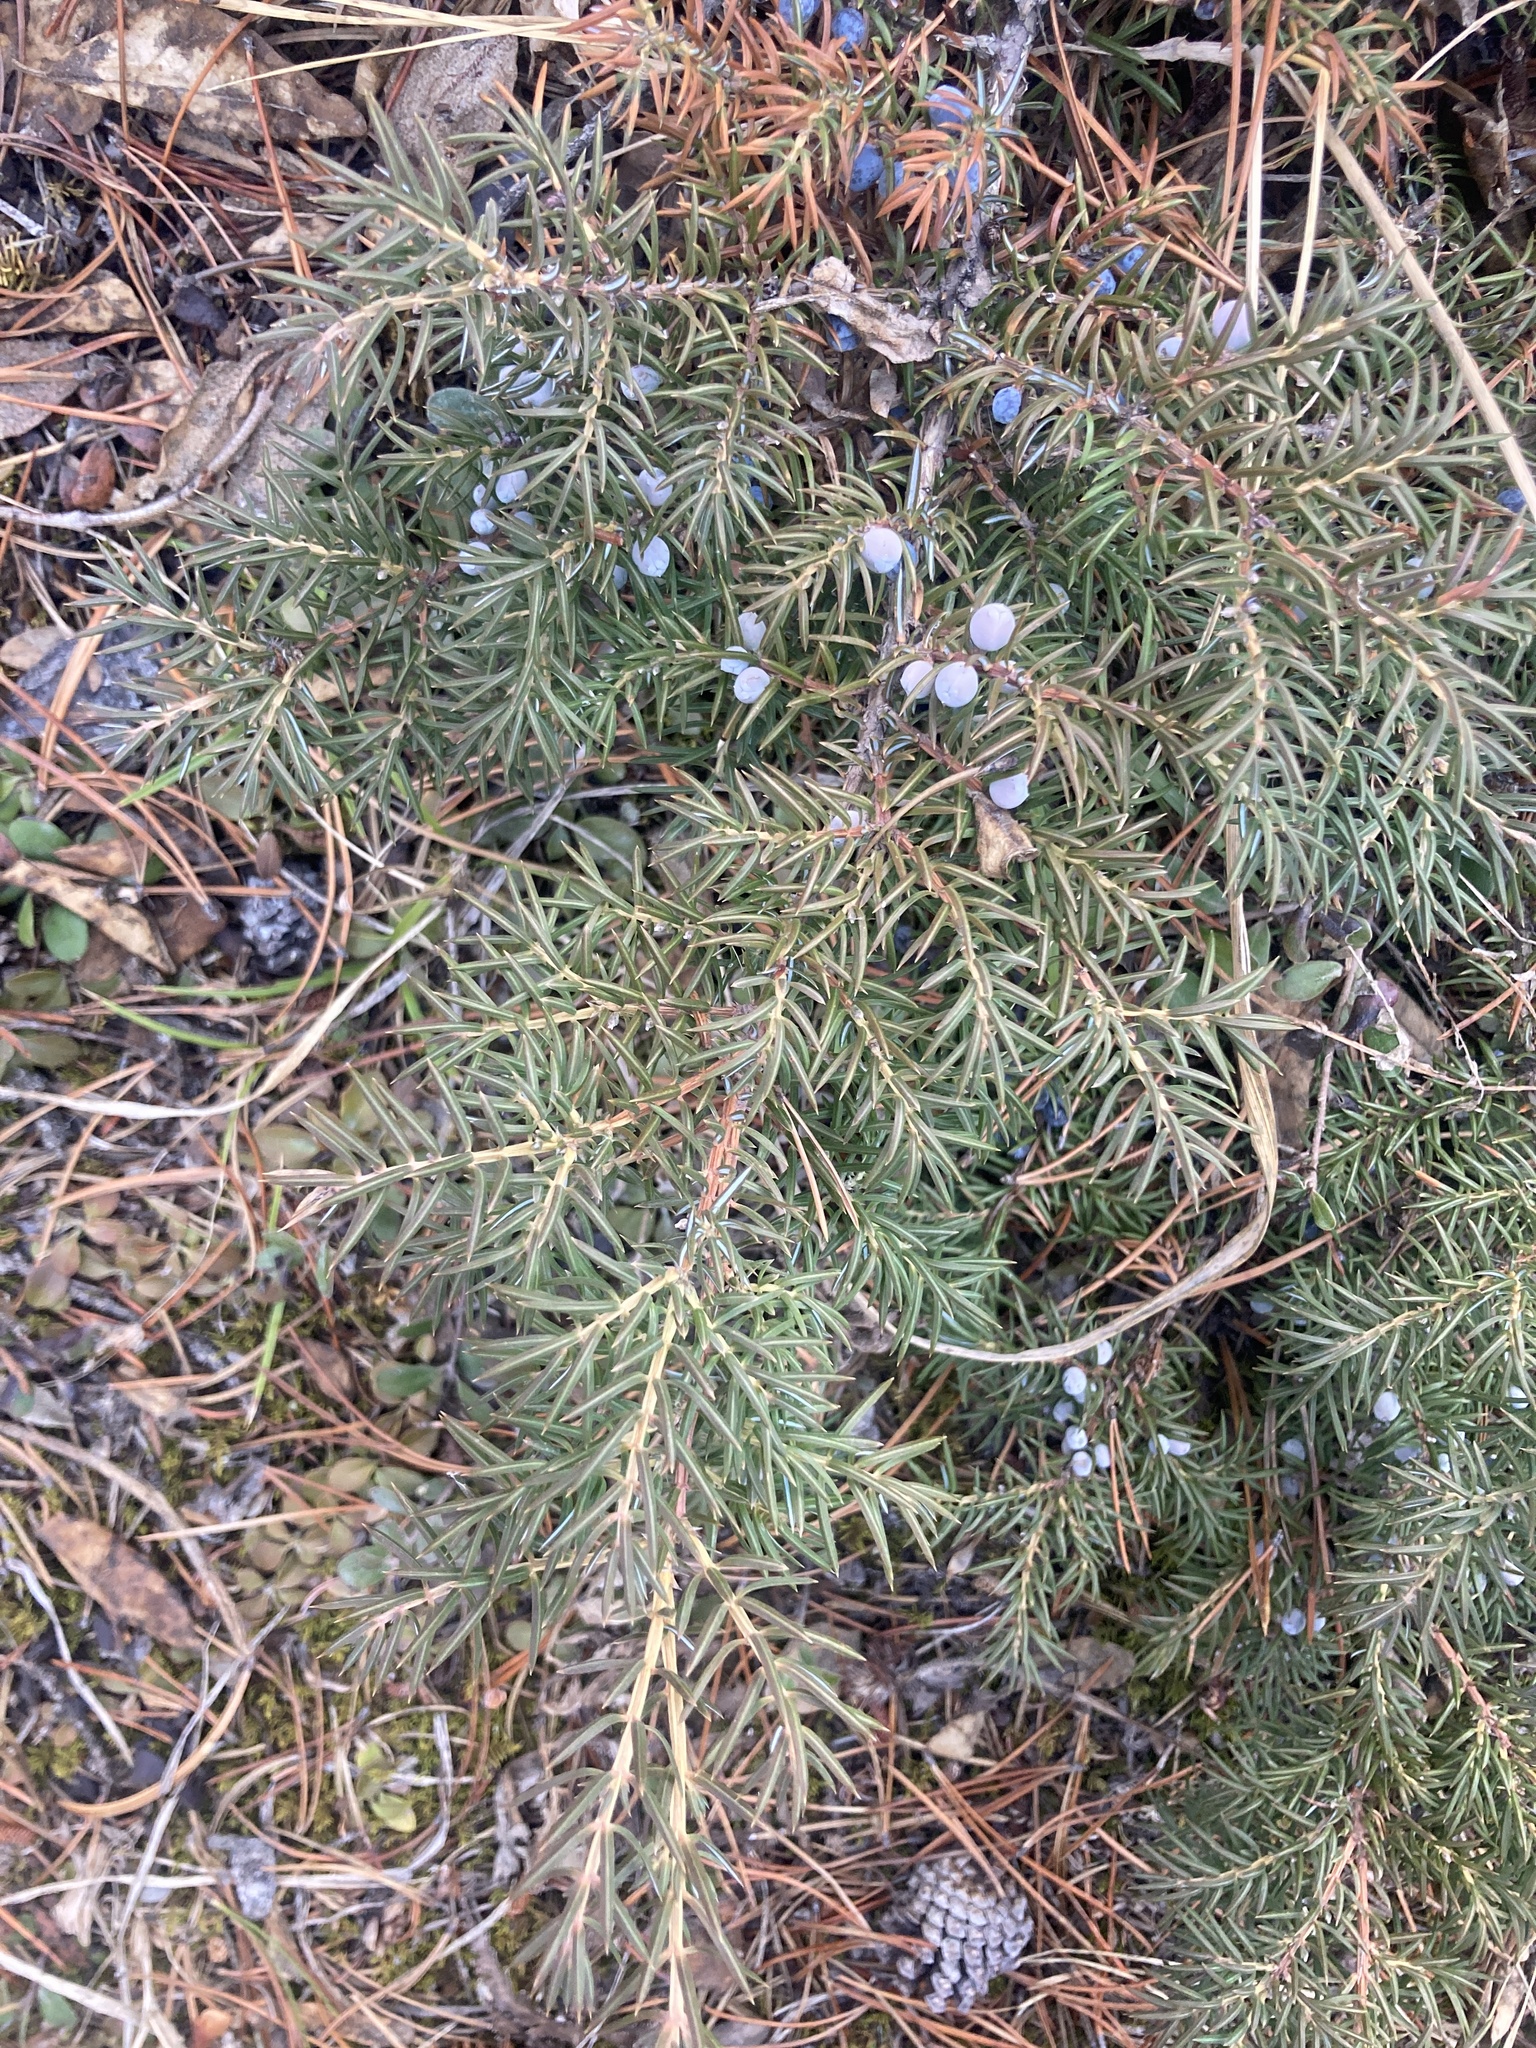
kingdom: Plantae
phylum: Tracheophyta
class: Pinopsida
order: Pinales
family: Cupressaceae
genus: Juniperus
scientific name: Juniperus communis
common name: Common juniper
